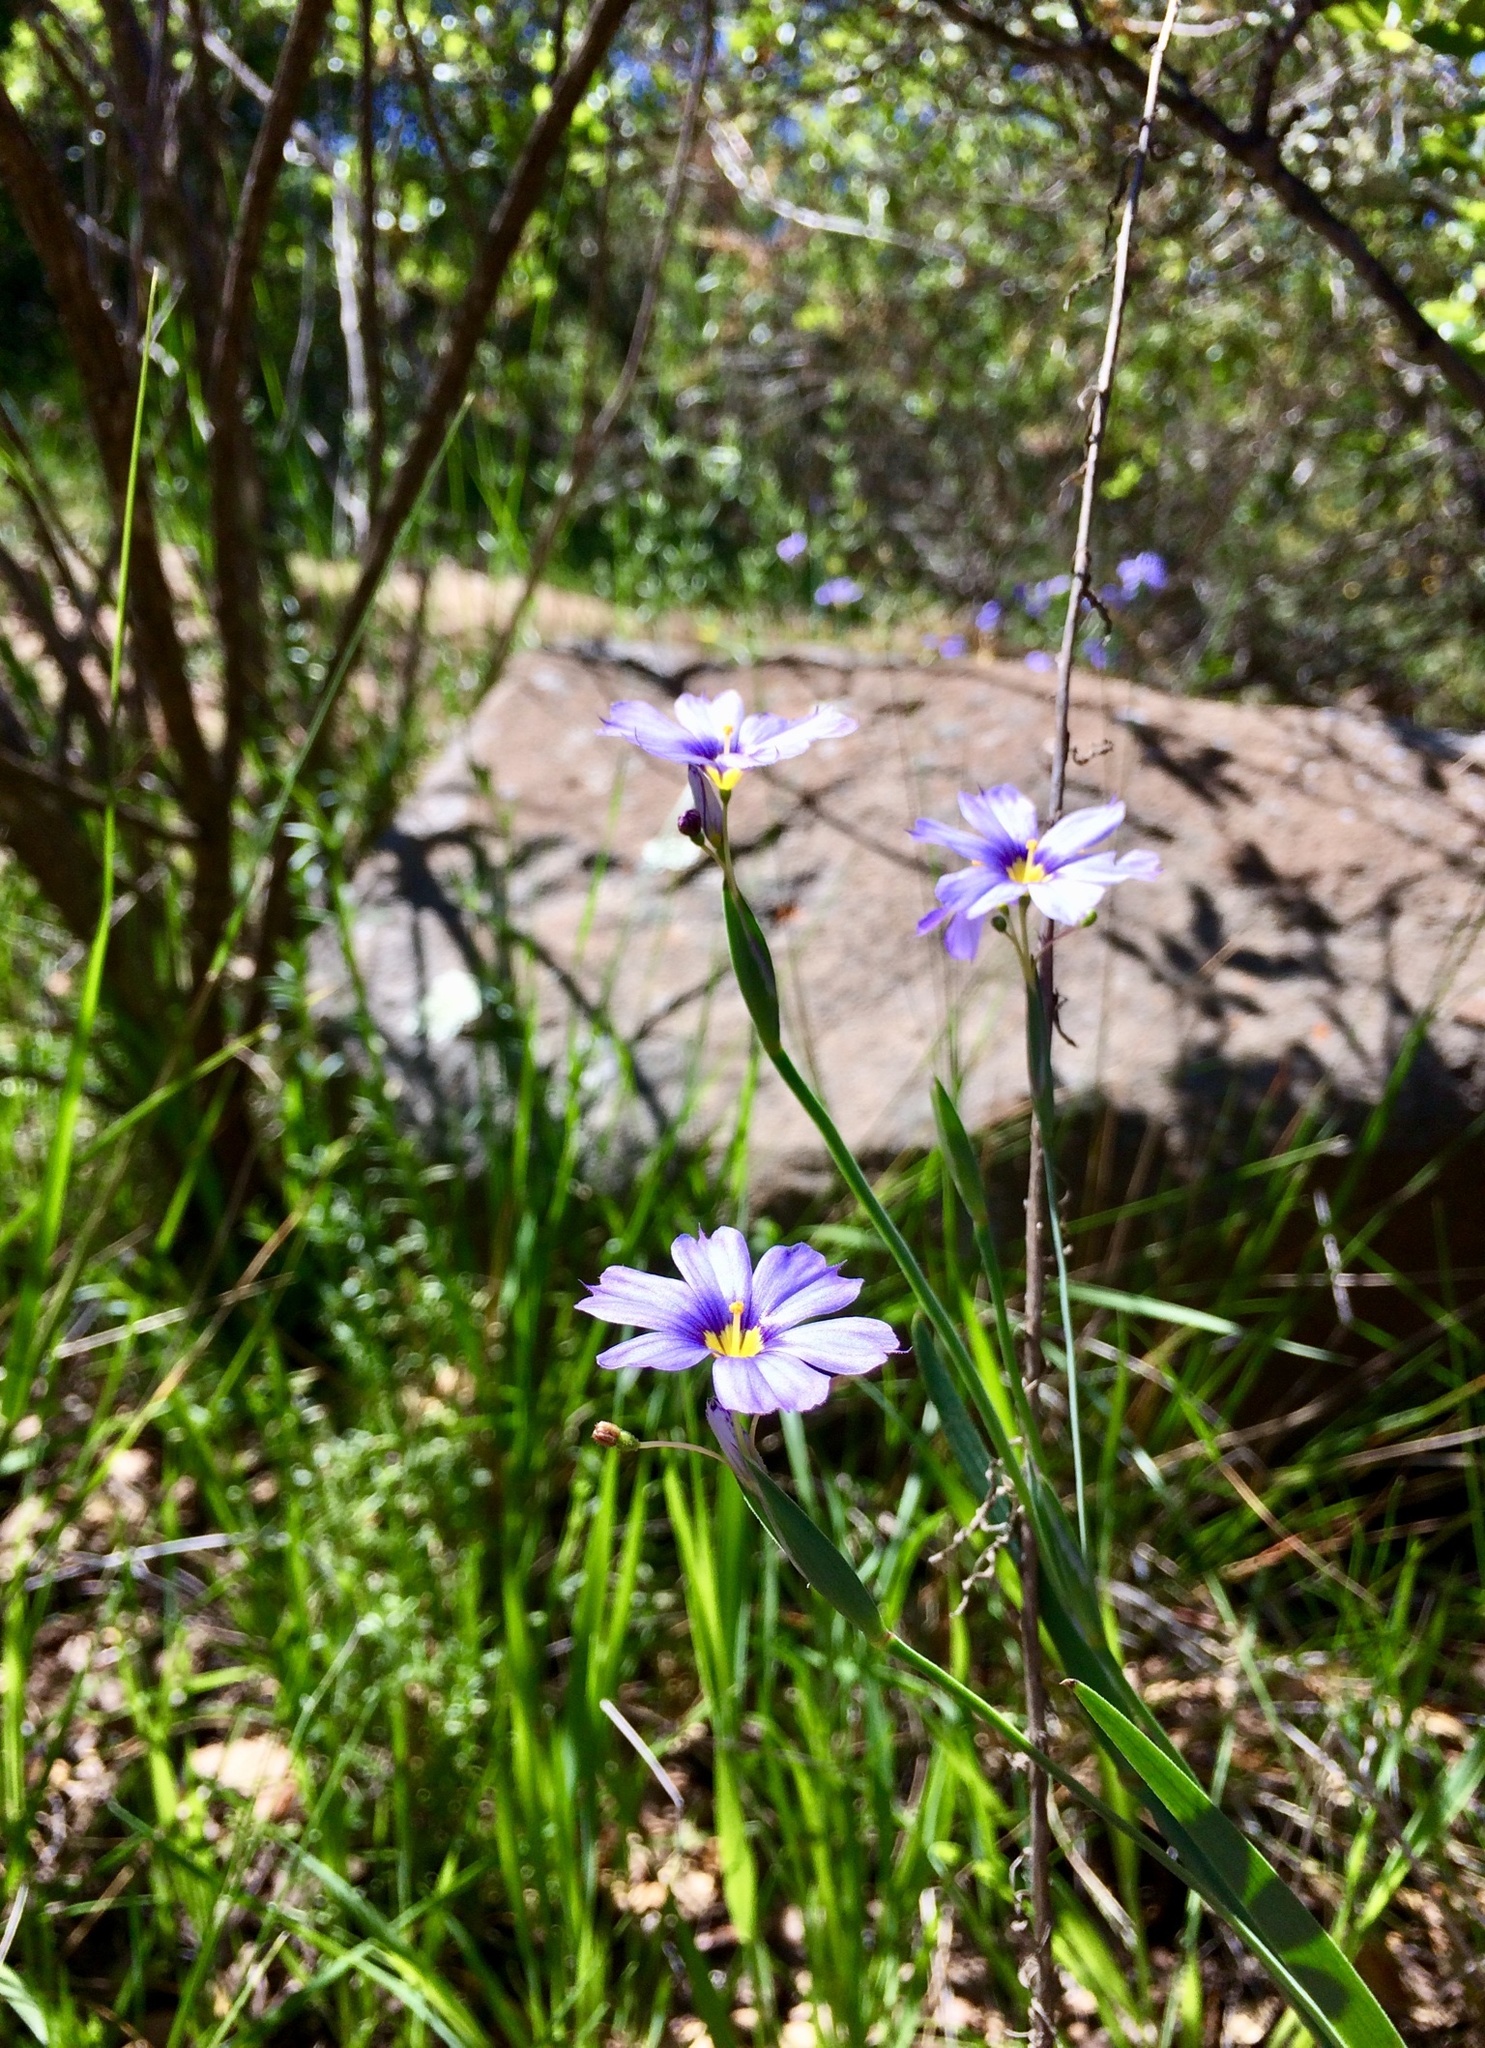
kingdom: Plantae
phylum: Tracheophyta
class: Liliopsida
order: Asparagales
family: Iridaceae
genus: Sisyrinchium
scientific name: Sisyrinchium bellum
